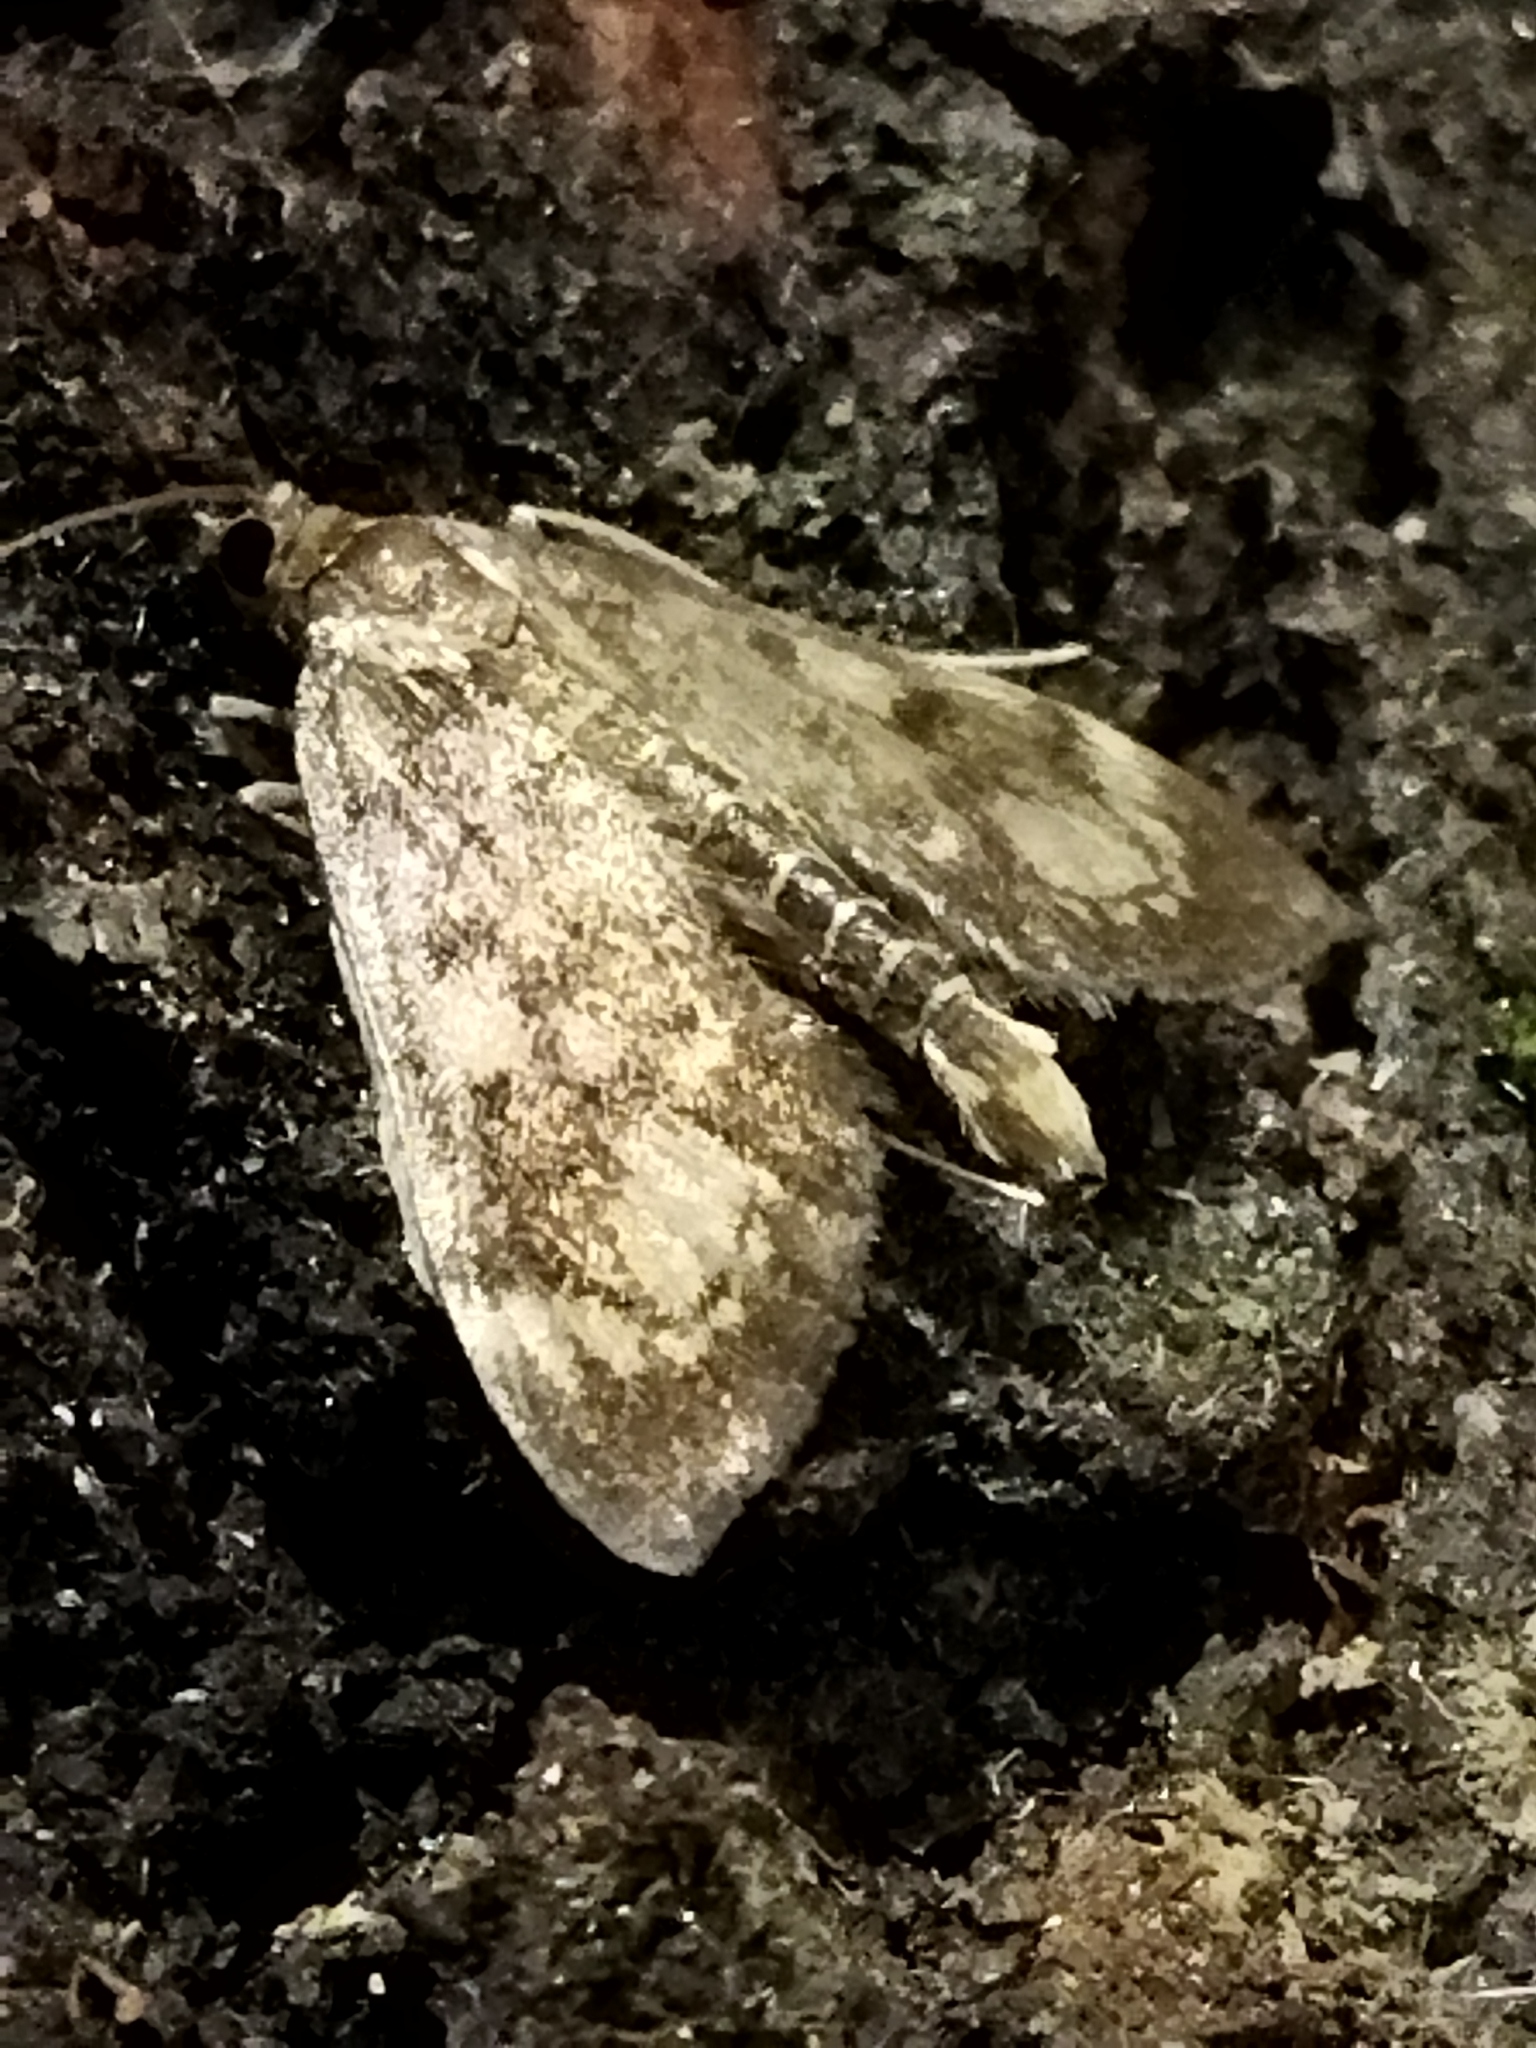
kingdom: Animalia
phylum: Arthropoda
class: Insecta
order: Lepidoptera
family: Crambidae
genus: Anania
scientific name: Anania coronata
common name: Elder pearl
